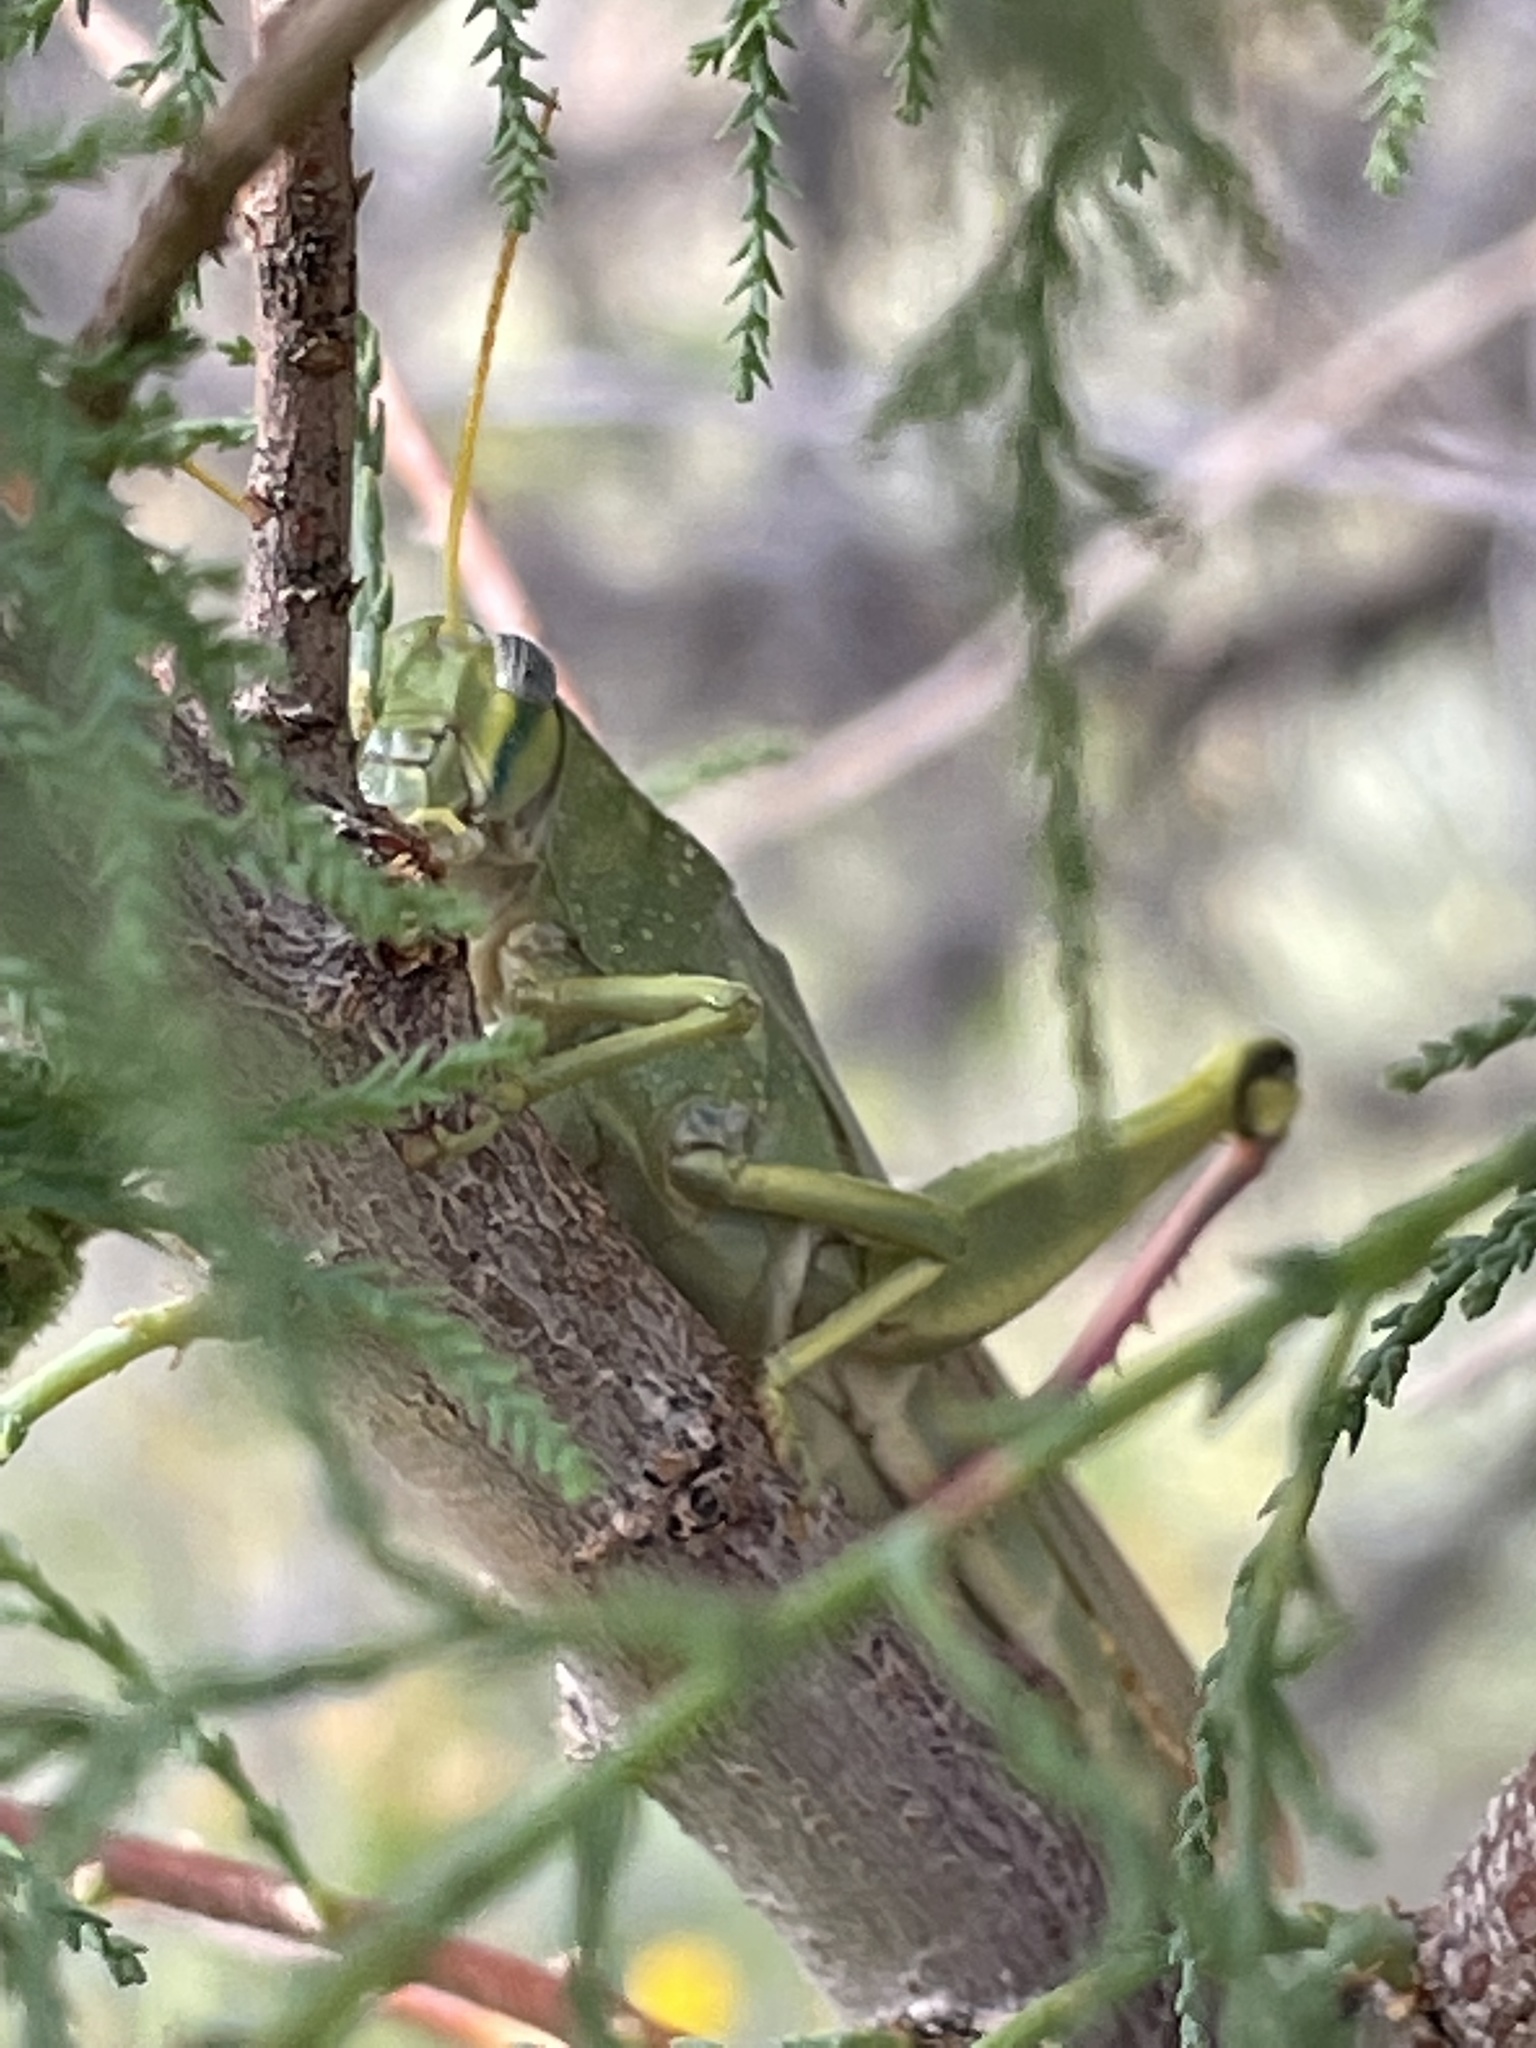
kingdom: Animalia
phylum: Arthropoda
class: Insecta
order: Orthoptera
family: Acrididae
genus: Schistocerca
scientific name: Schistocerca lineata
